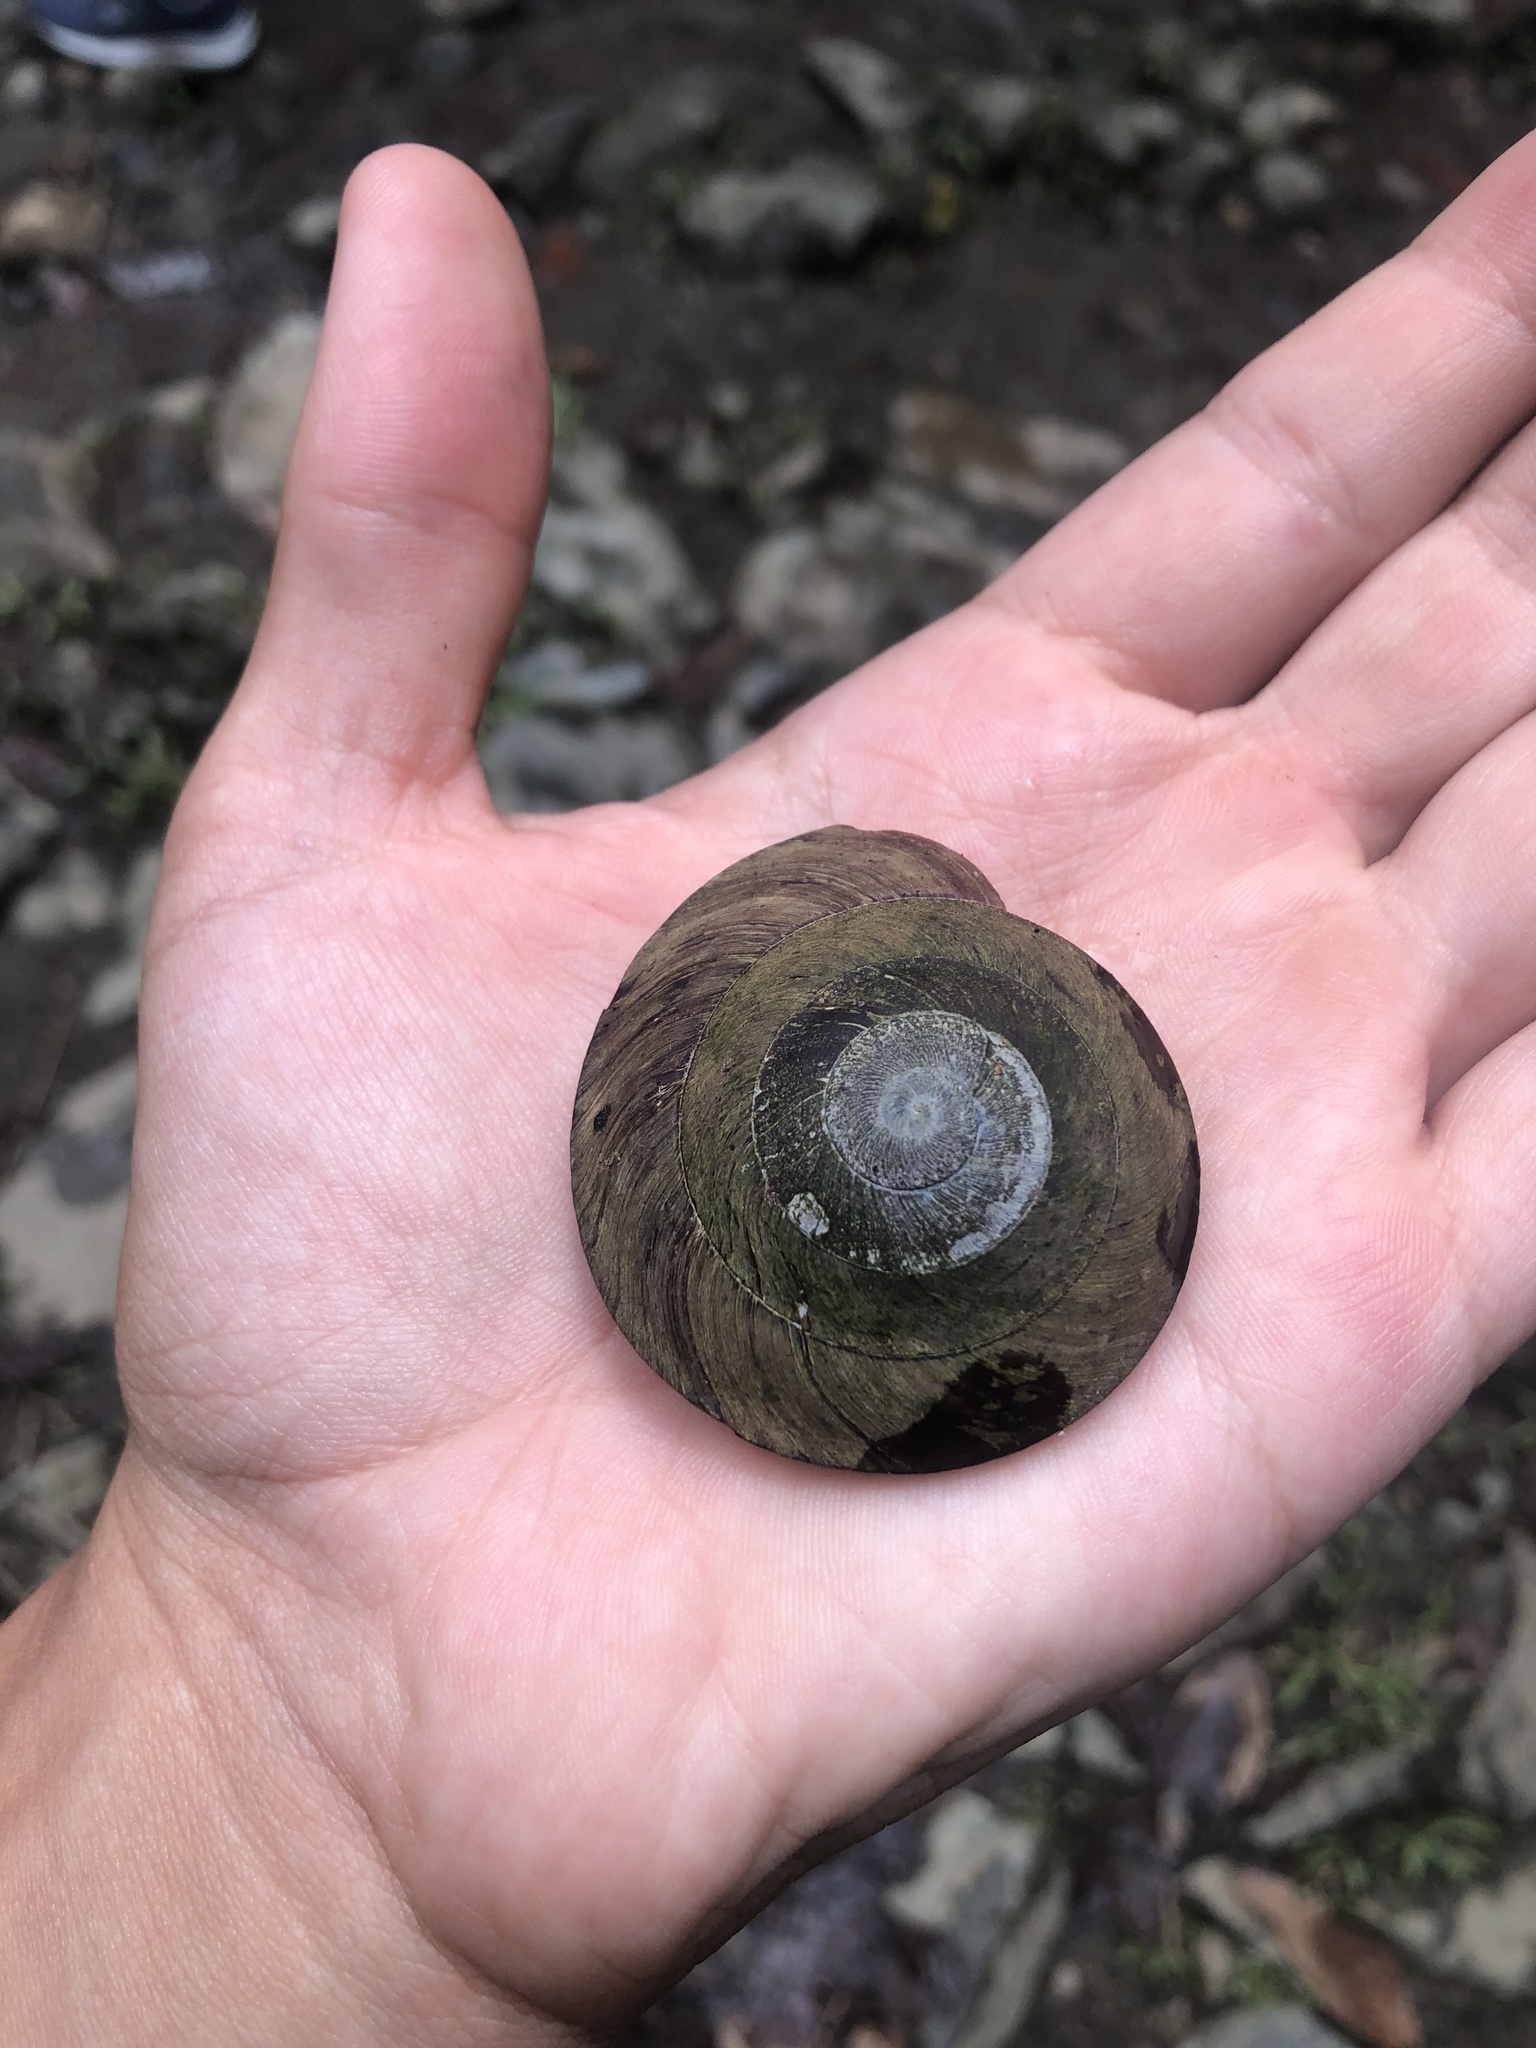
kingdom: Animalia
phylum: Mollusca
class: Gastropoda
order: Stylommatophora
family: Solaropsidae
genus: Caracolus
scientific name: Caracolus carocolla
